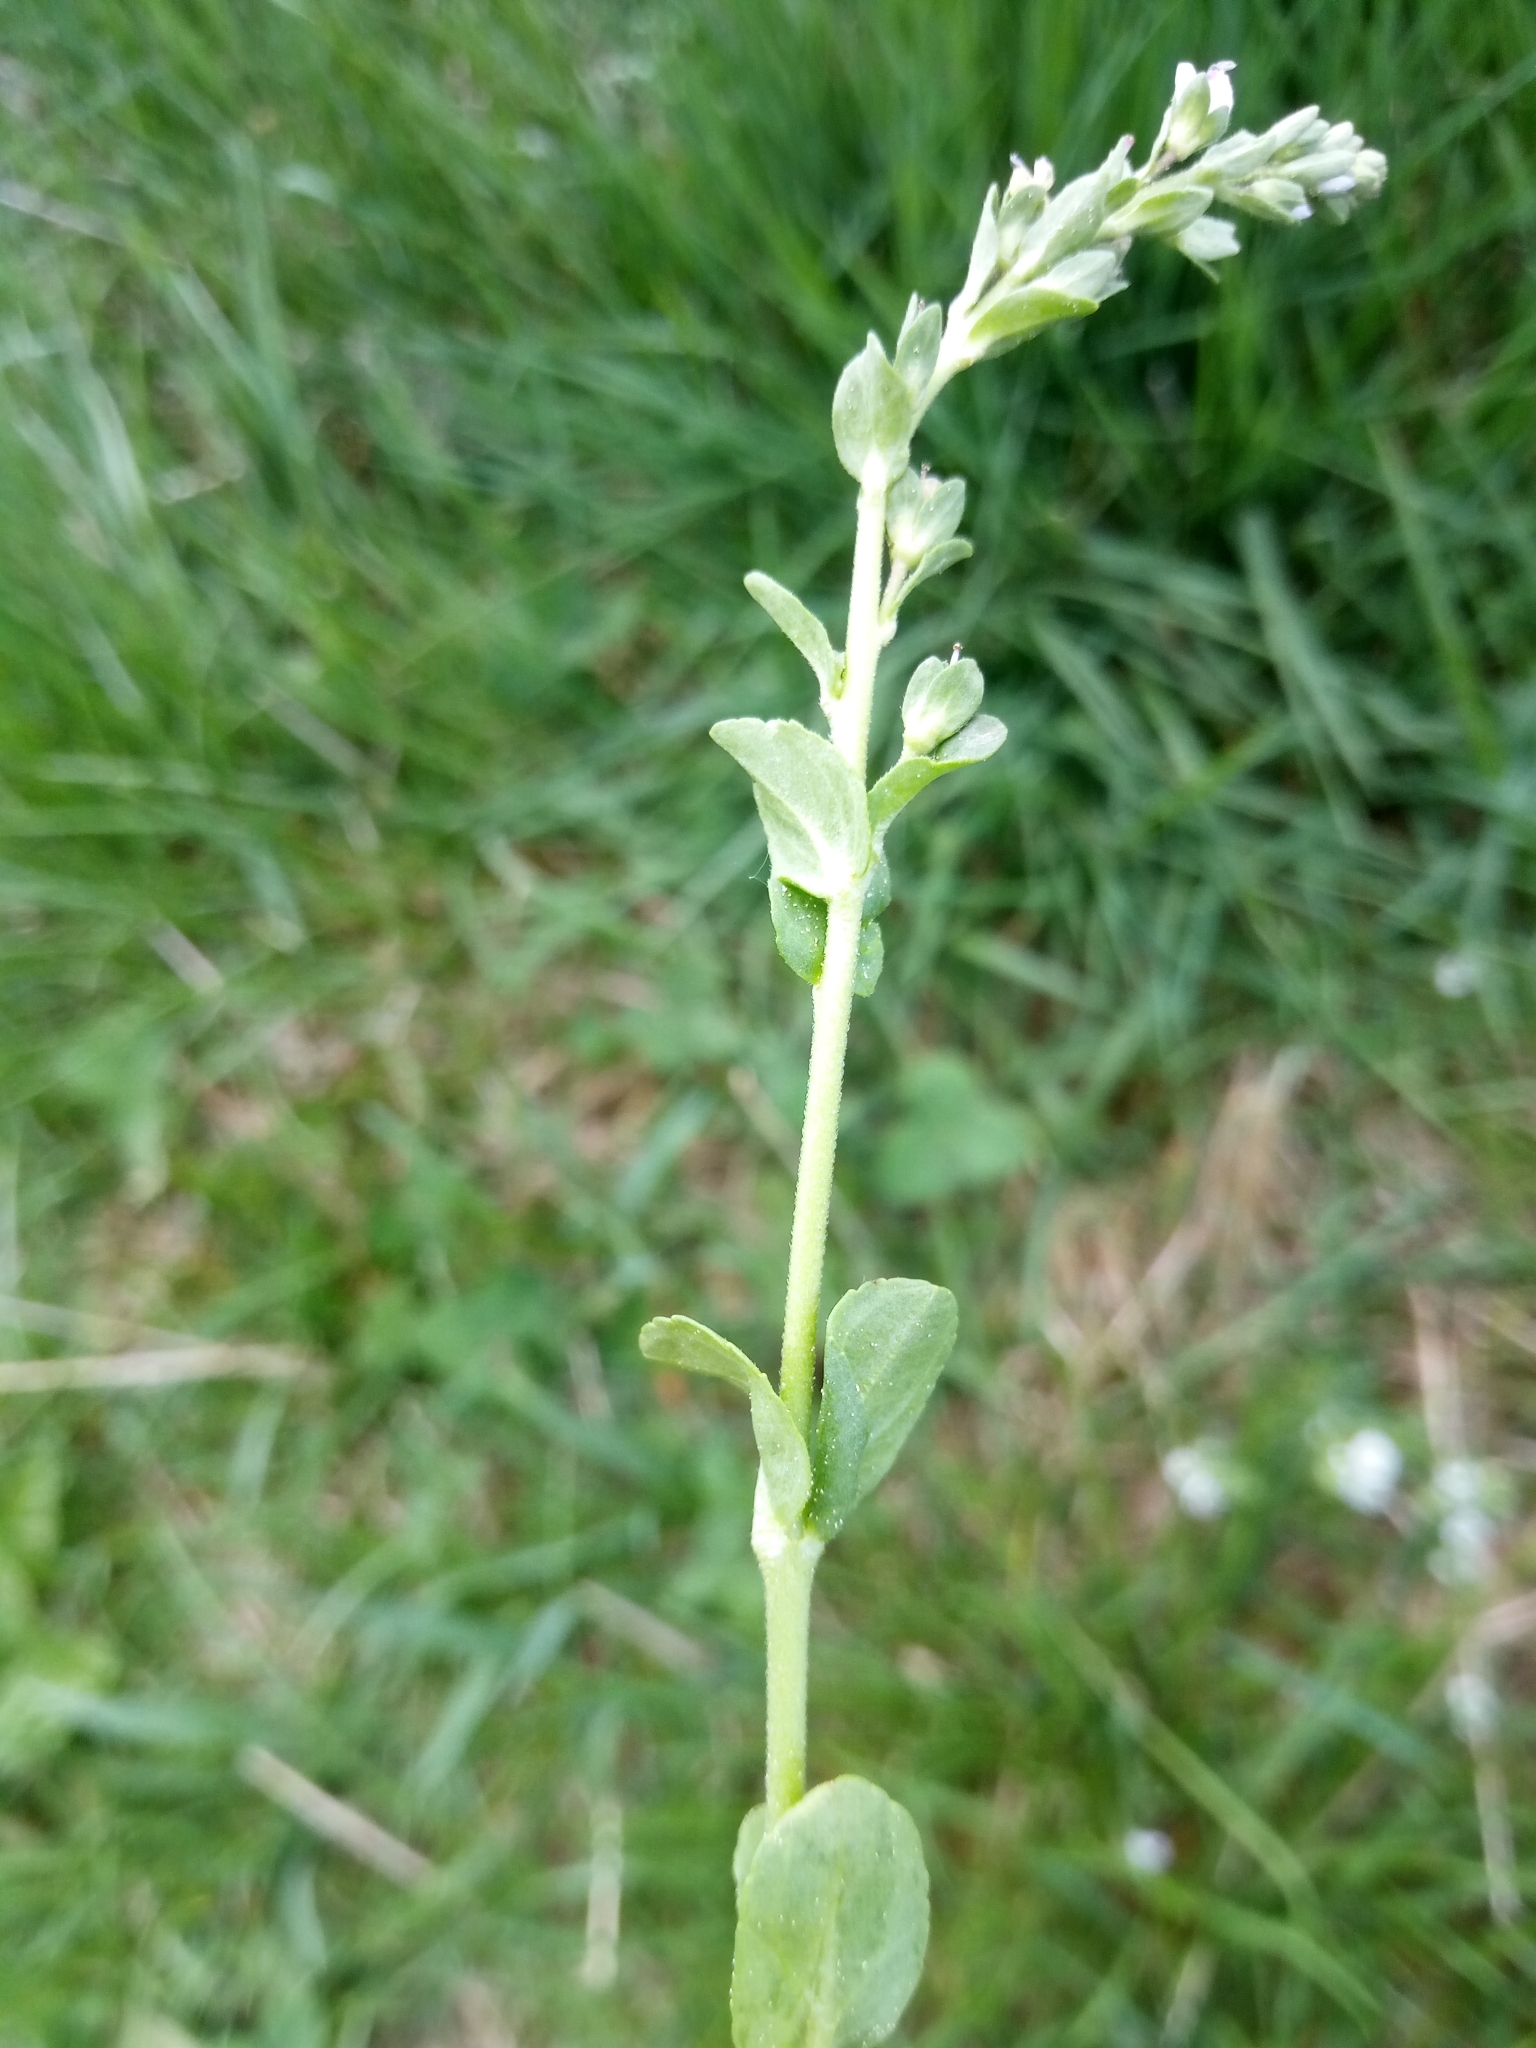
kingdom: Plantae
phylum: Tracheophyta
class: Magnoliopsida
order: Lamiales
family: Plantaginaceae
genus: Veronica
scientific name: Veronica serpyllifolia
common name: Thyme-leaved speedwell
